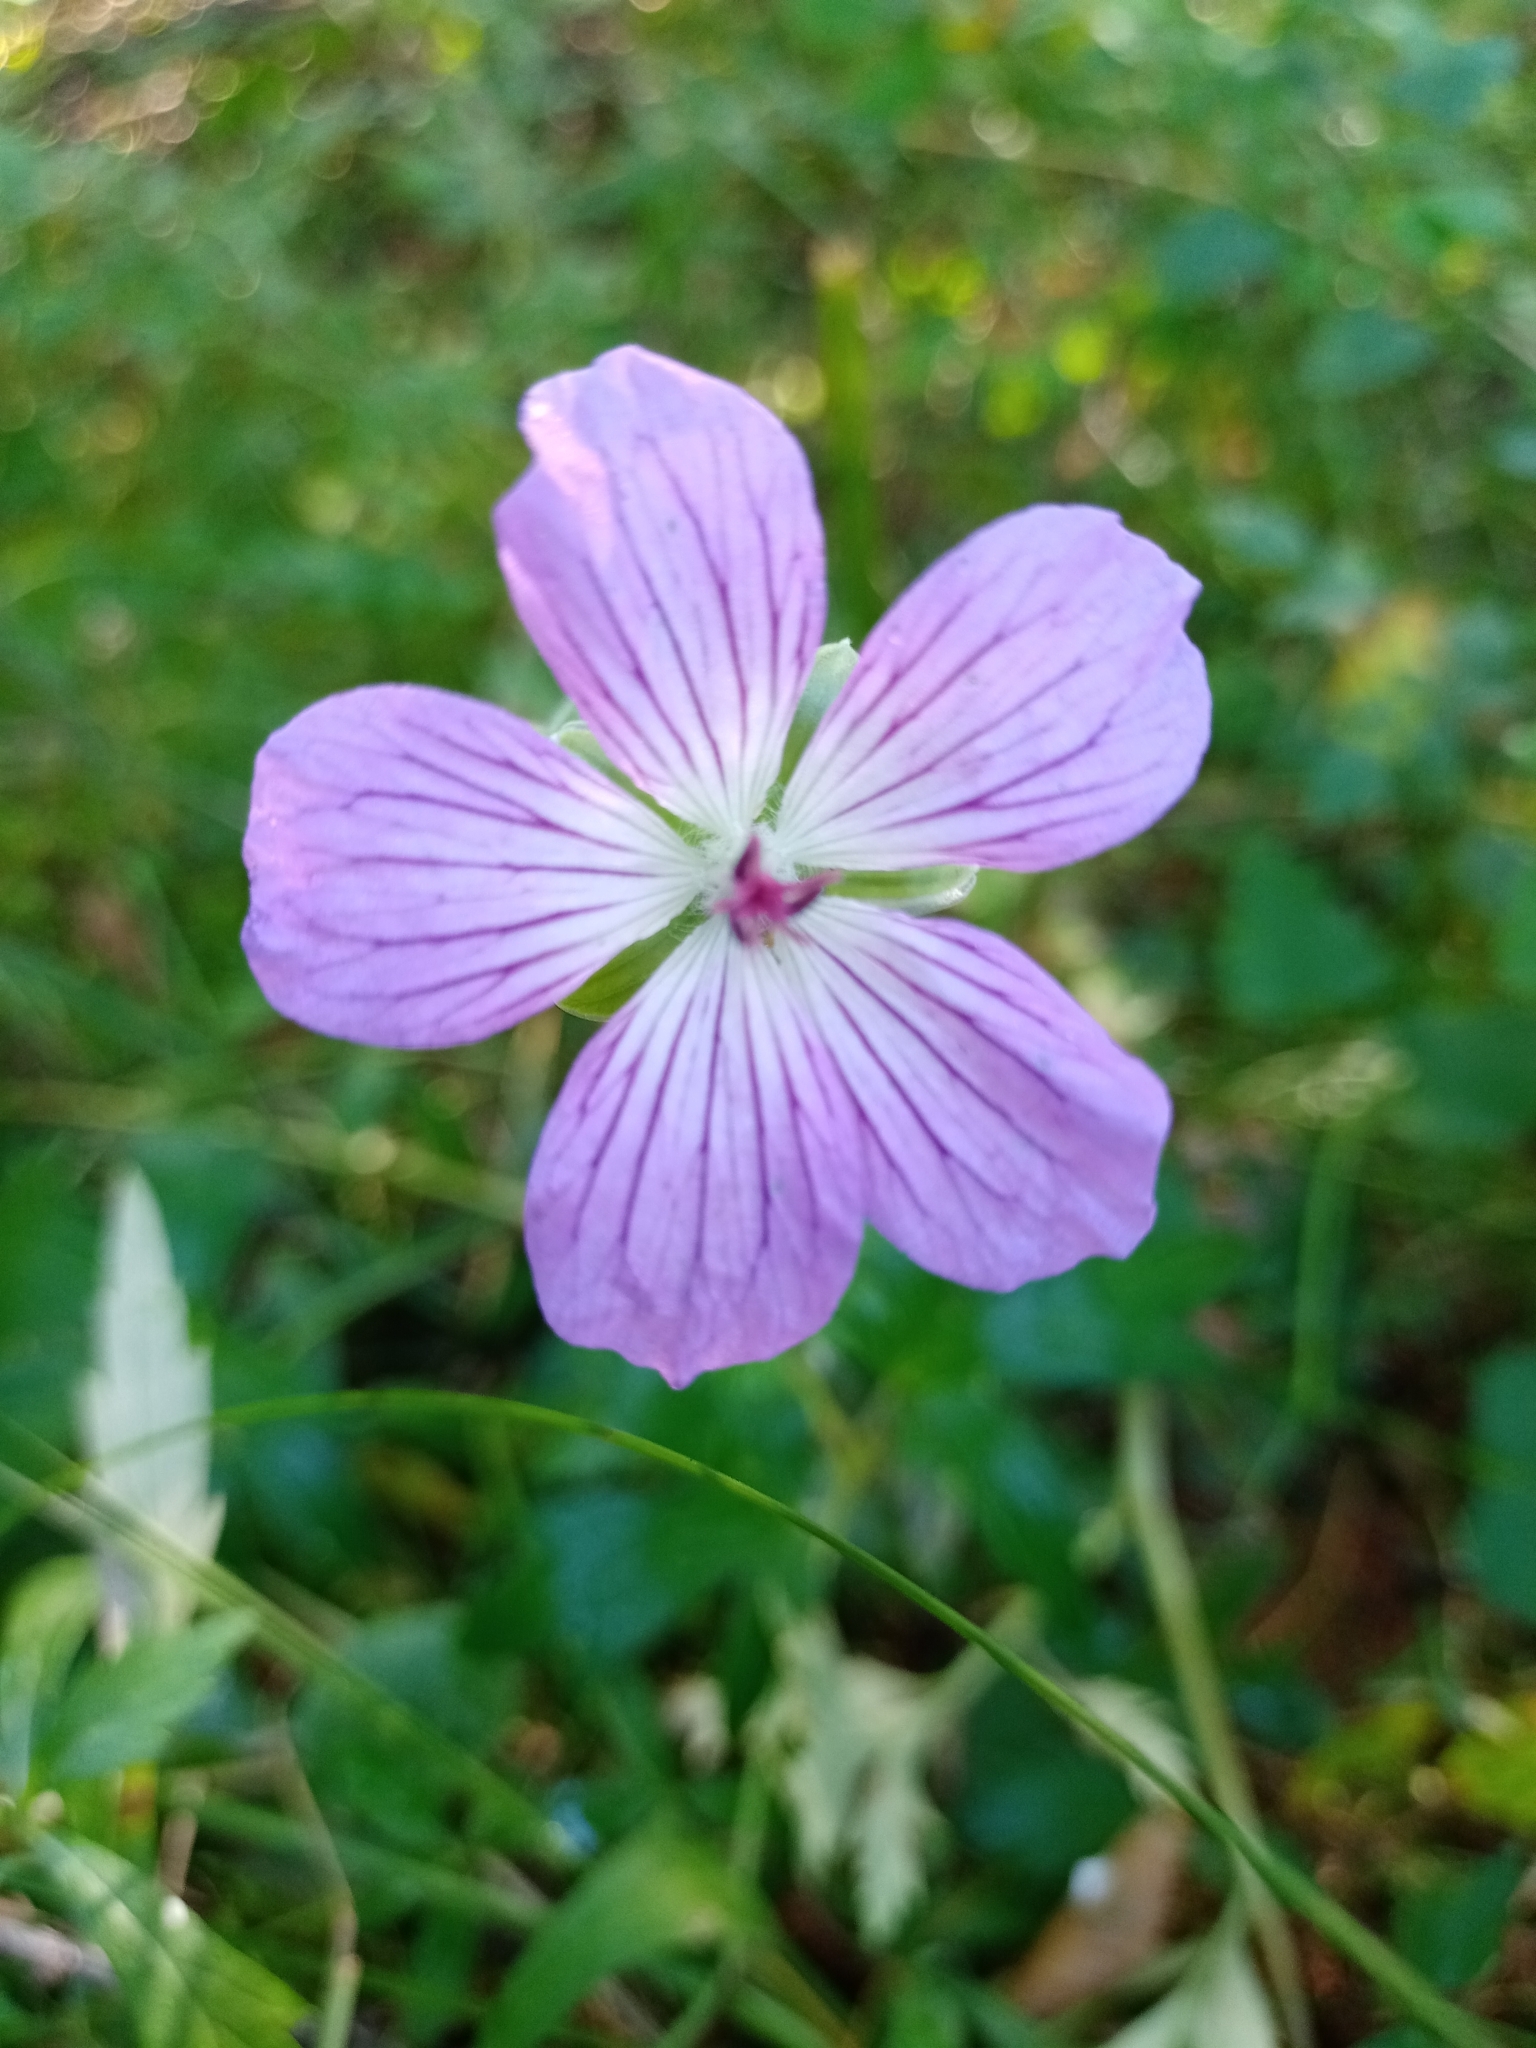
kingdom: Plantae
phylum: Tracheophyta
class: Magnoliopsida
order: Geraniales
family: Geraniaceae
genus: Geranium
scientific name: Geranium wlassovianum
